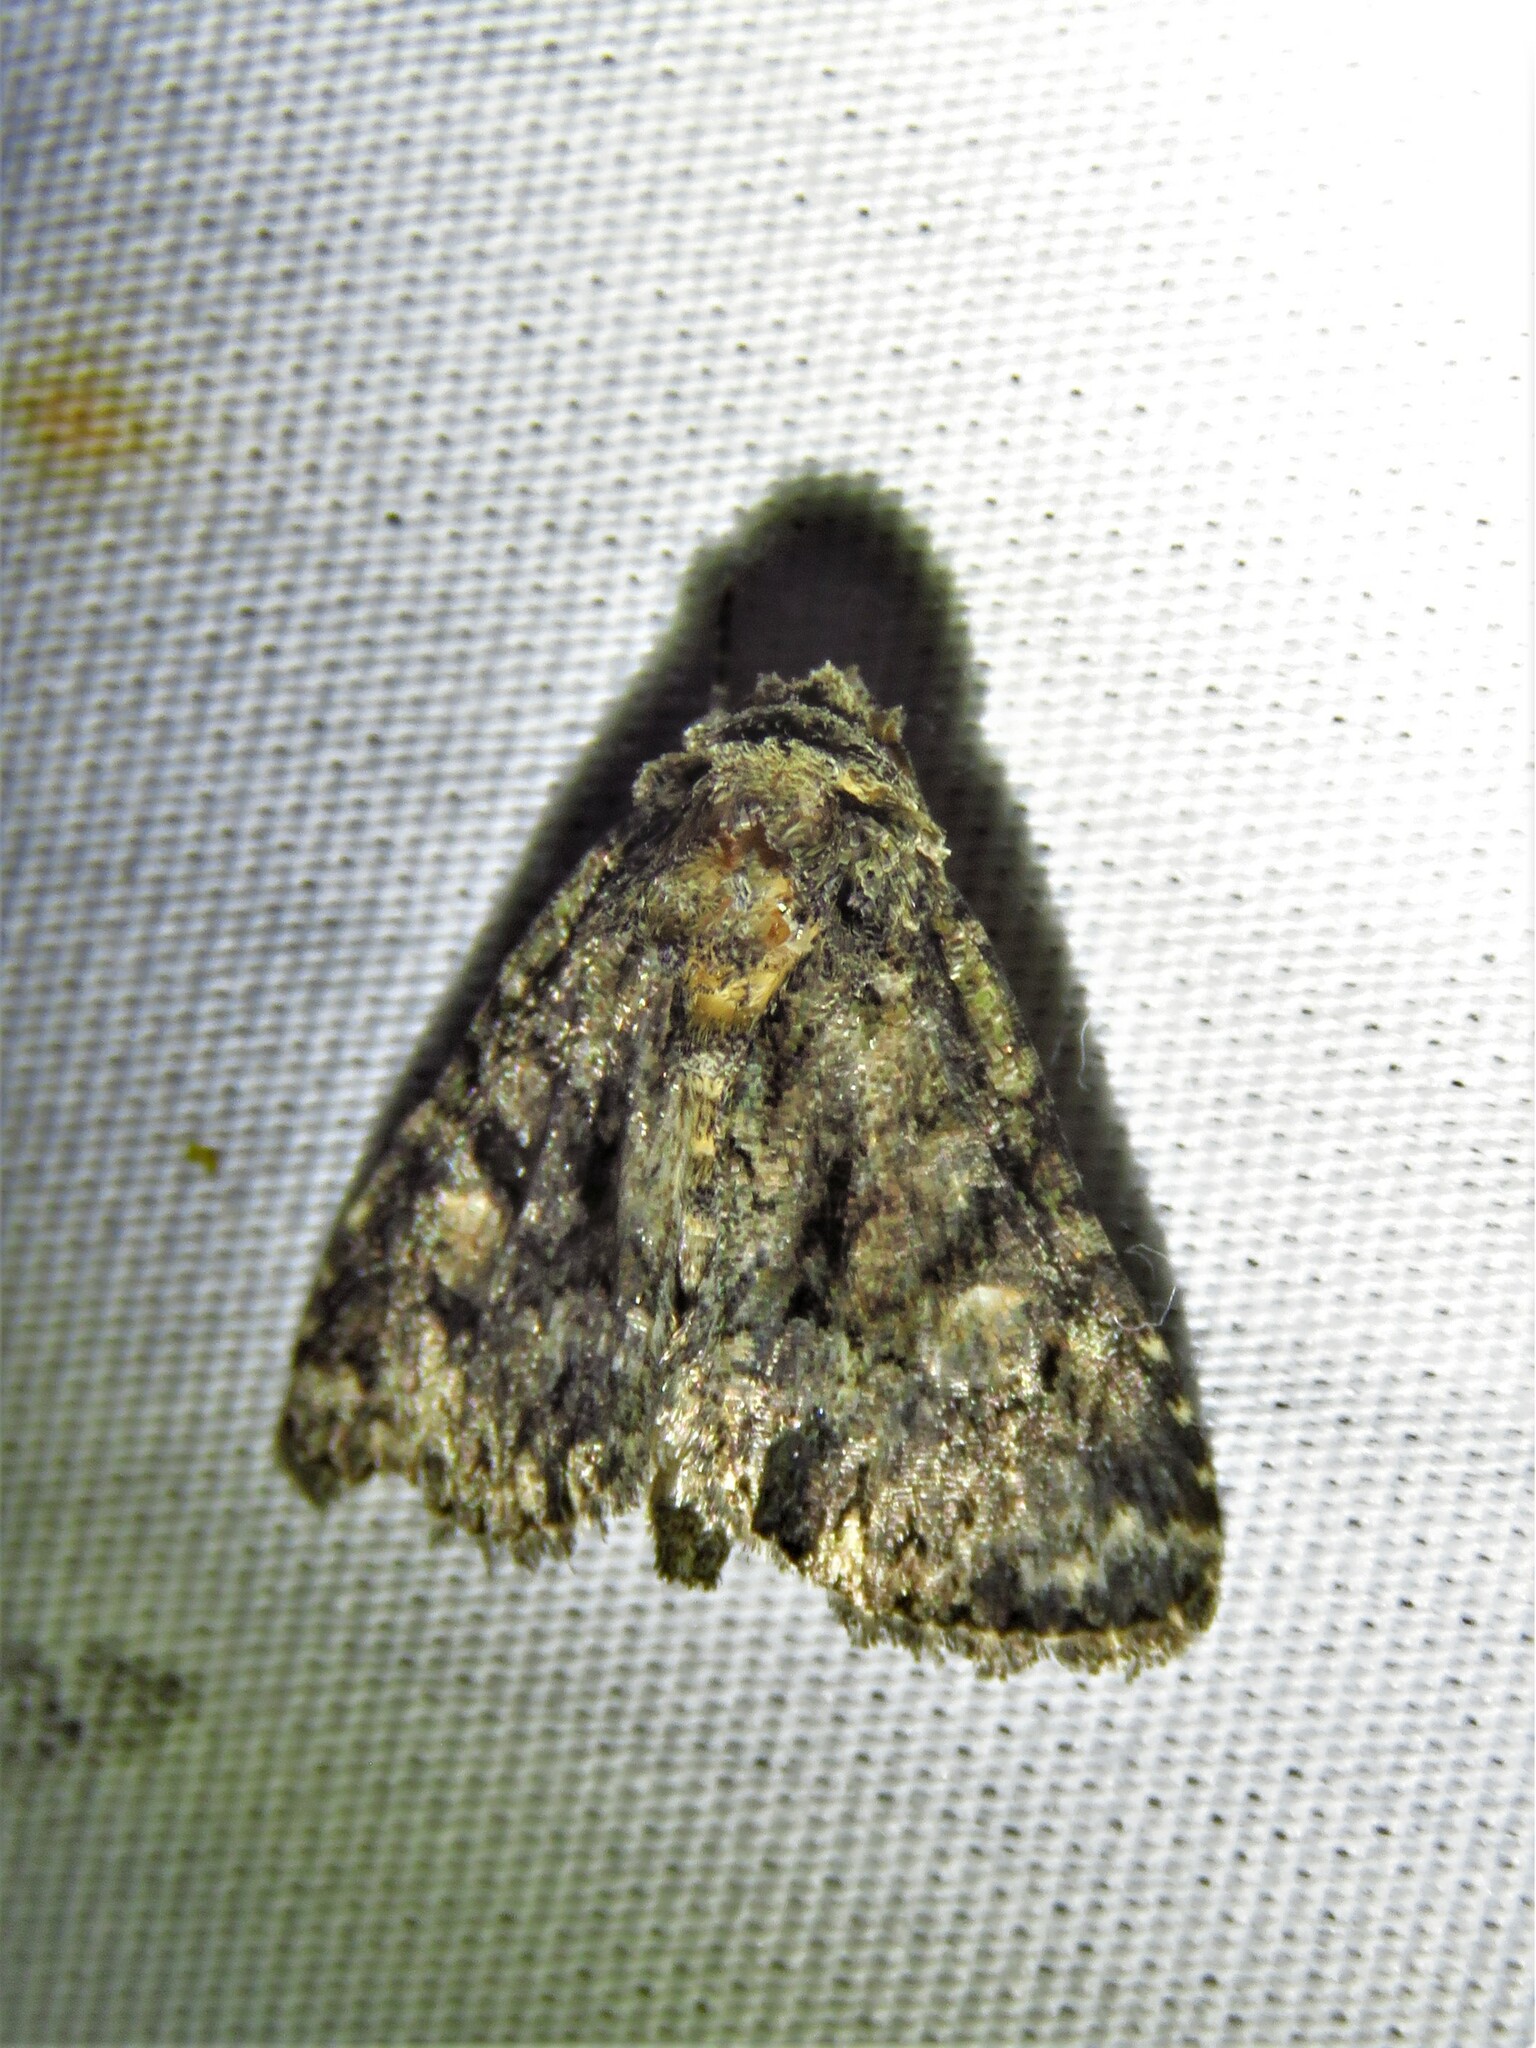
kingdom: Animalia
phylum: Arthropoda
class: Insecta
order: Lepidoptera
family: Noctuidae
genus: Phosphila
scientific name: Phosphila miselioides
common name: Spotted phosphila moth
